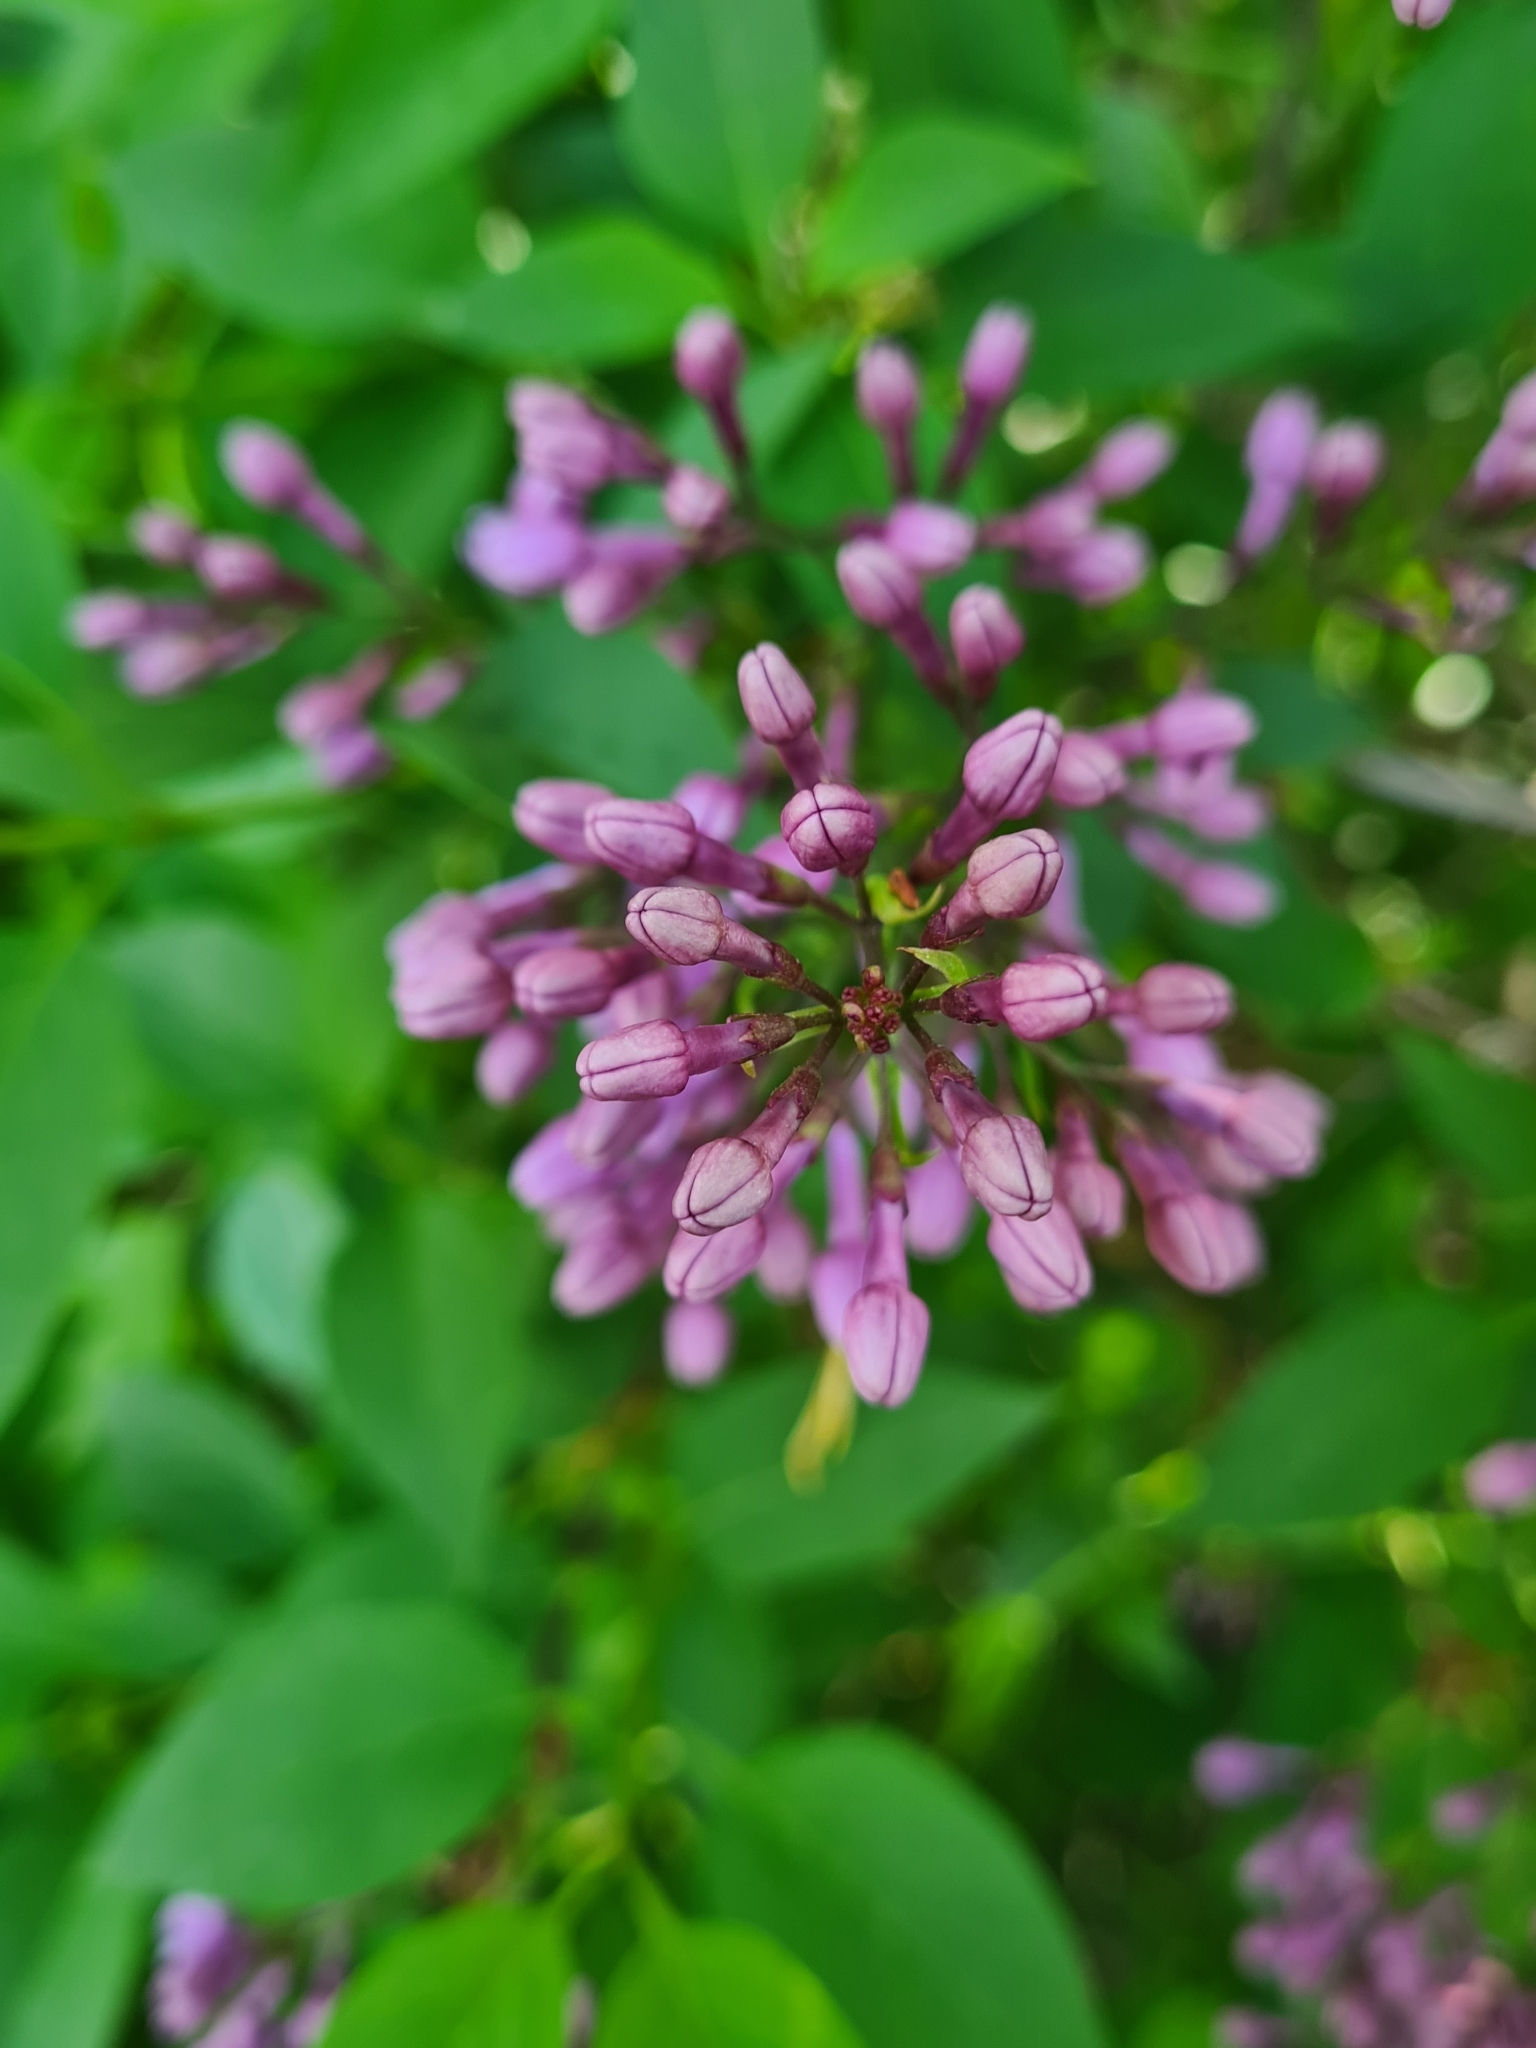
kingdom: Plantae
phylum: Tracheophyta
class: Magnoliopsida
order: Lamiales
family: Oleaceae
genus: Syringa
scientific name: Syringa vulgaris
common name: Common lilac
